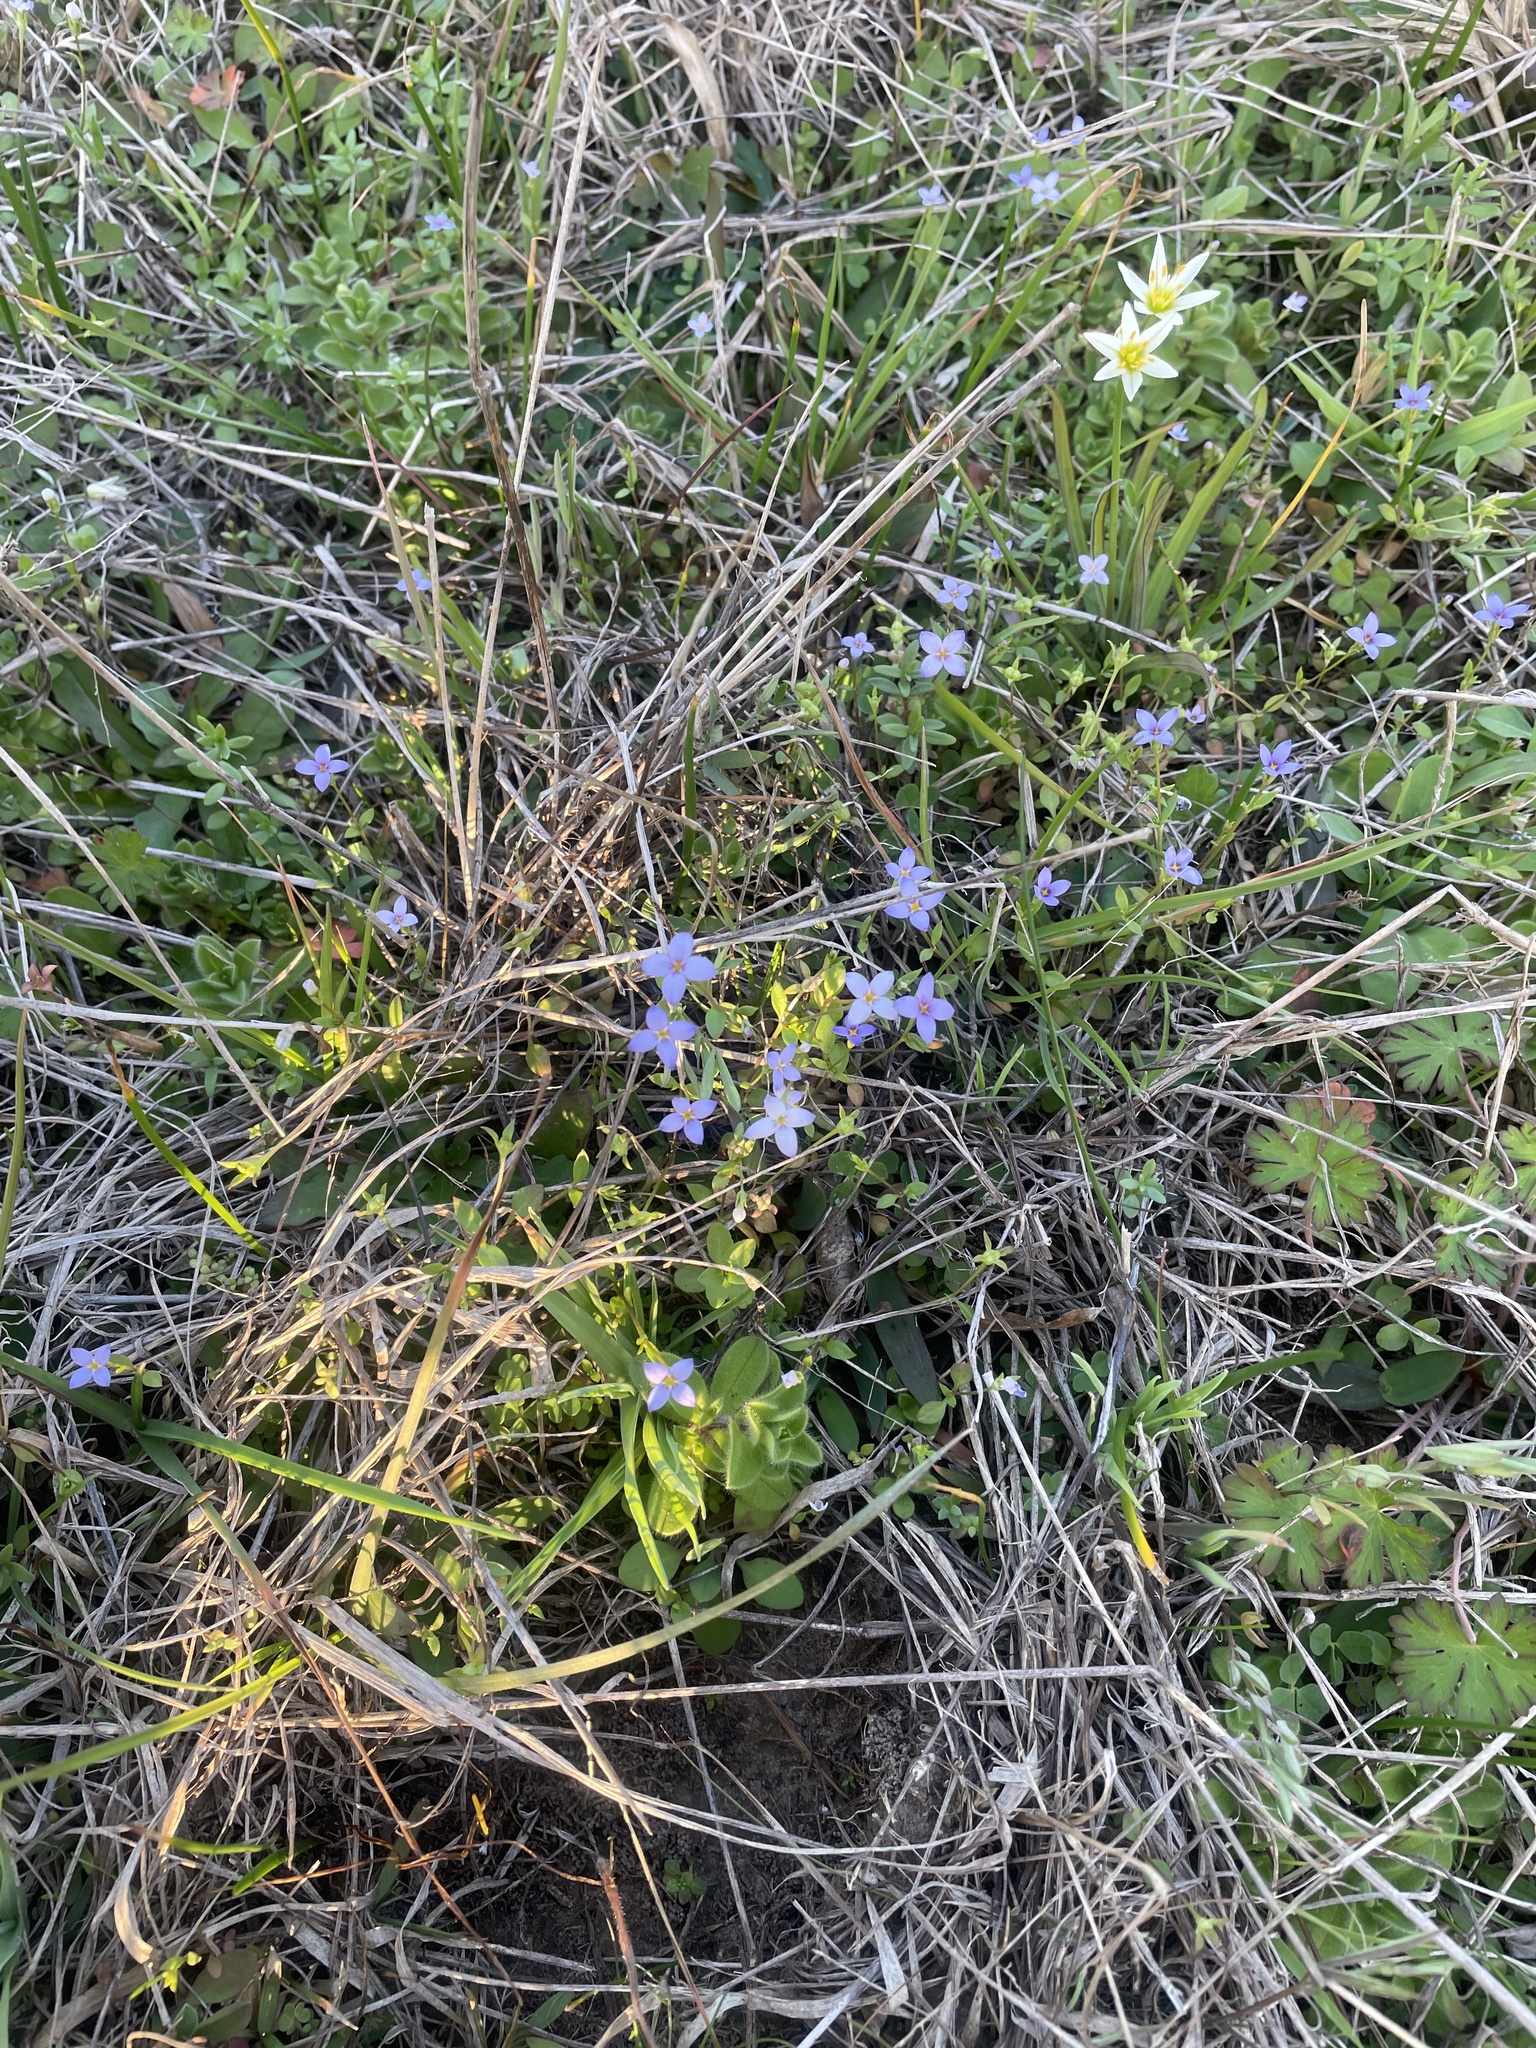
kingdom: Plantae
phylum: Tracheophyta
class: Magnoliopsida
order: Gentianales
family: Rubiaceae
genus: Houstonia
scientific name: Houstonia pusilla
